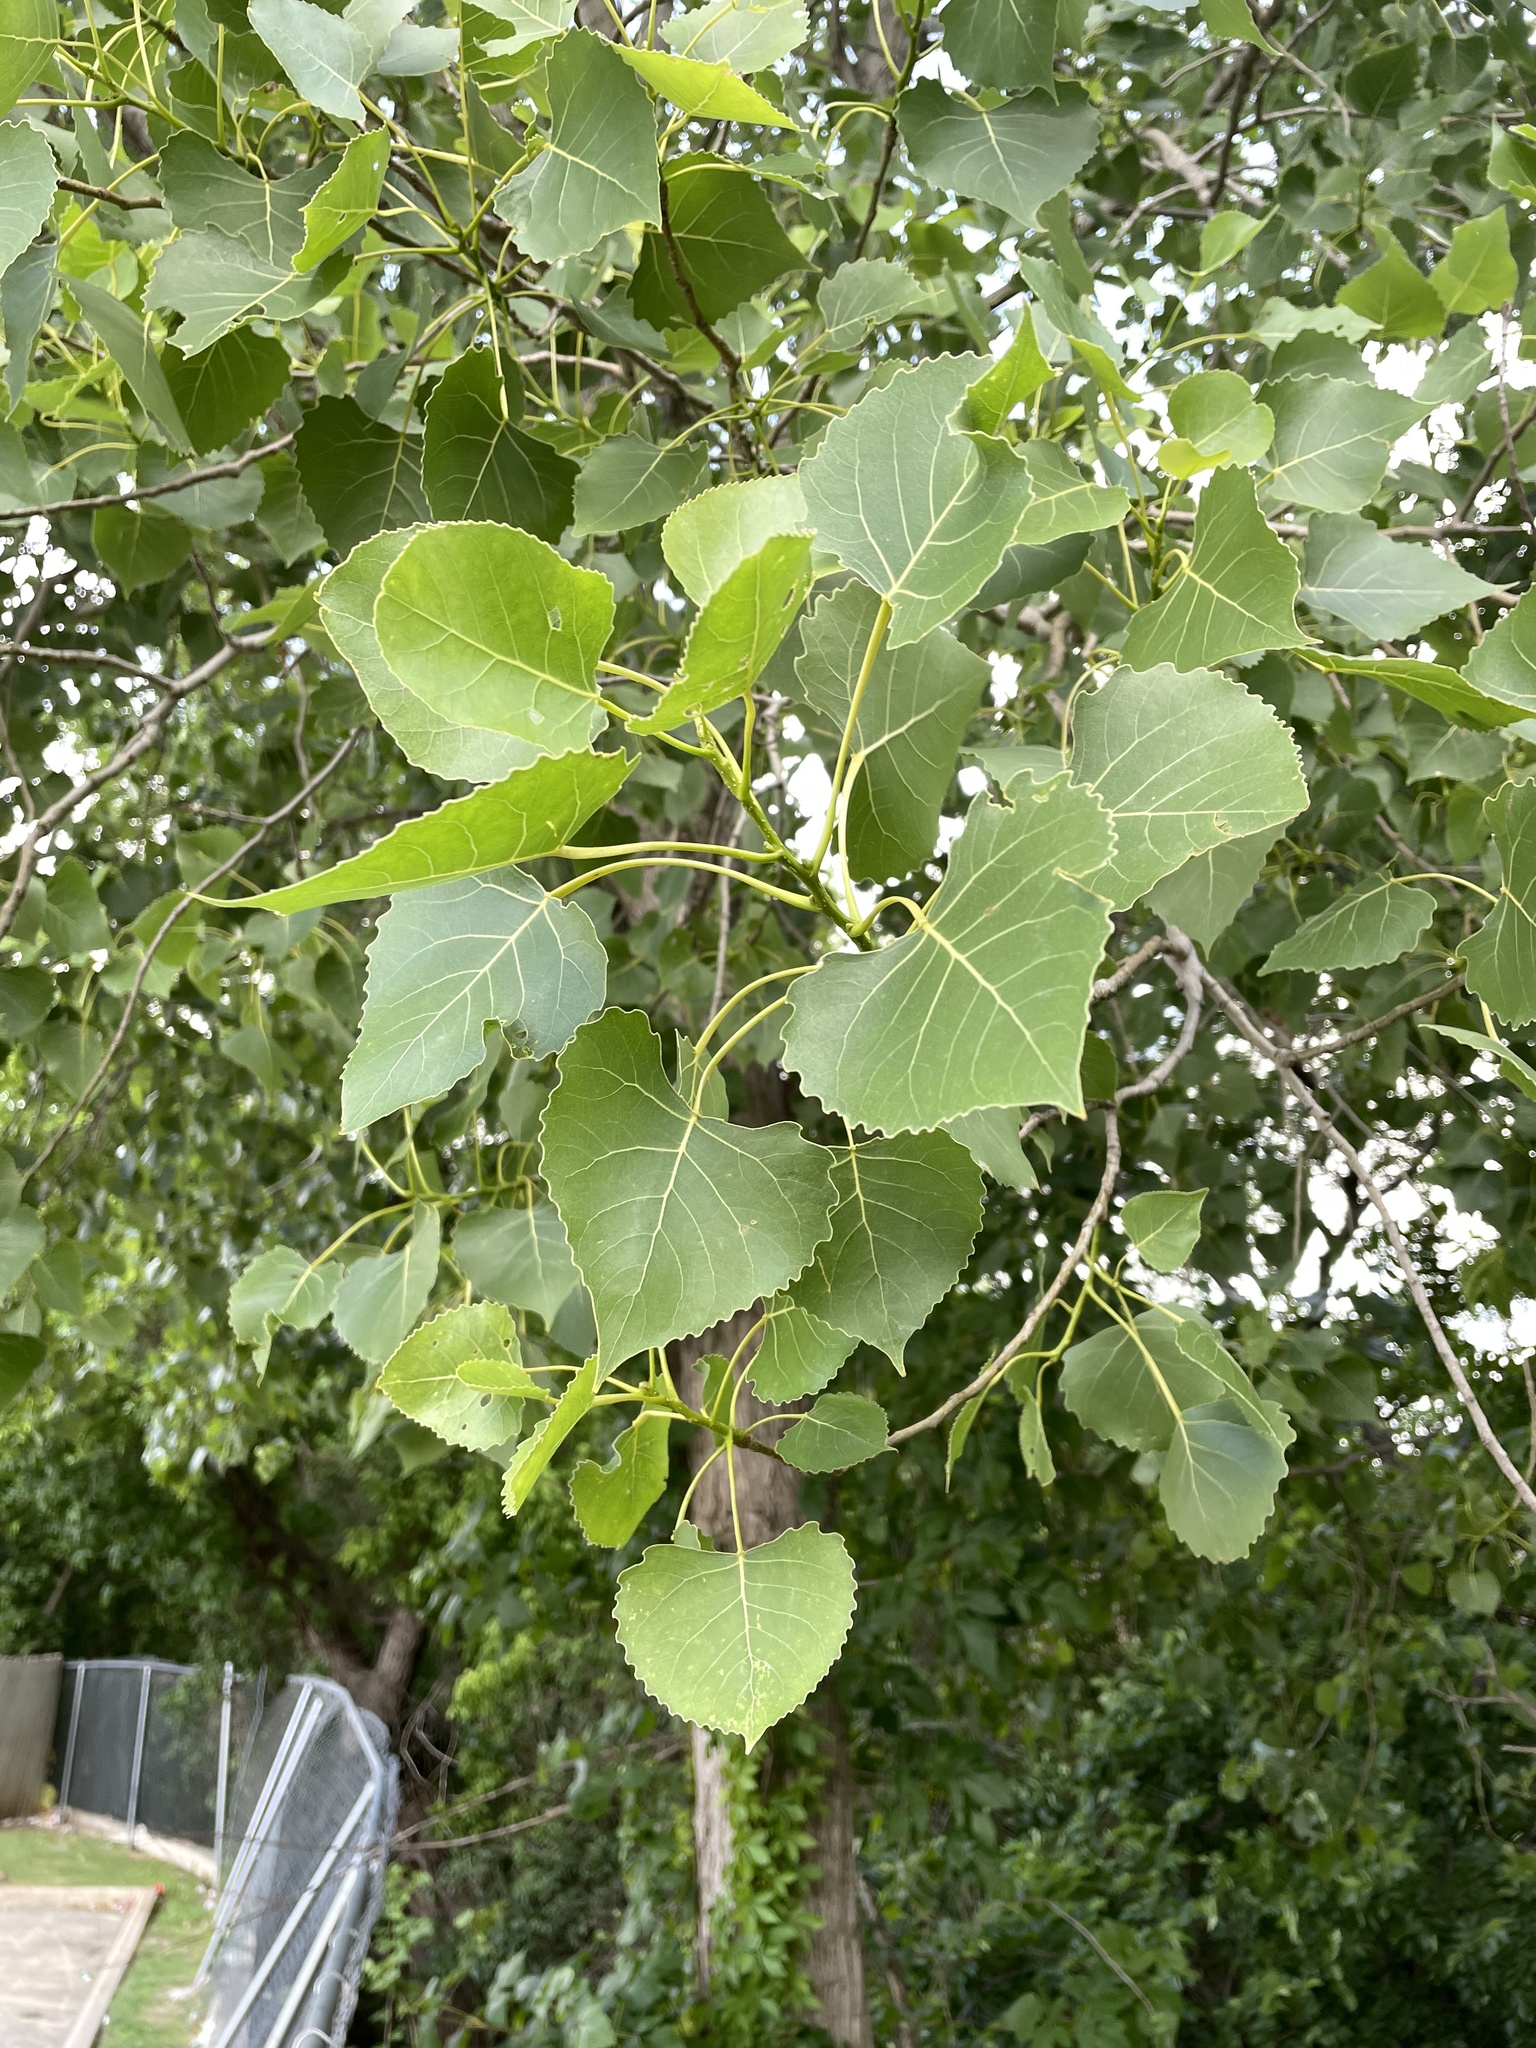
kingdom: Plantae
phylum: Tracheophyta
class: Magnoliopsida
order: Malpighiales
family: Salicaceae
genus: Populus
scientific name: Populus deltoides
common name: Eastern cottonwood
